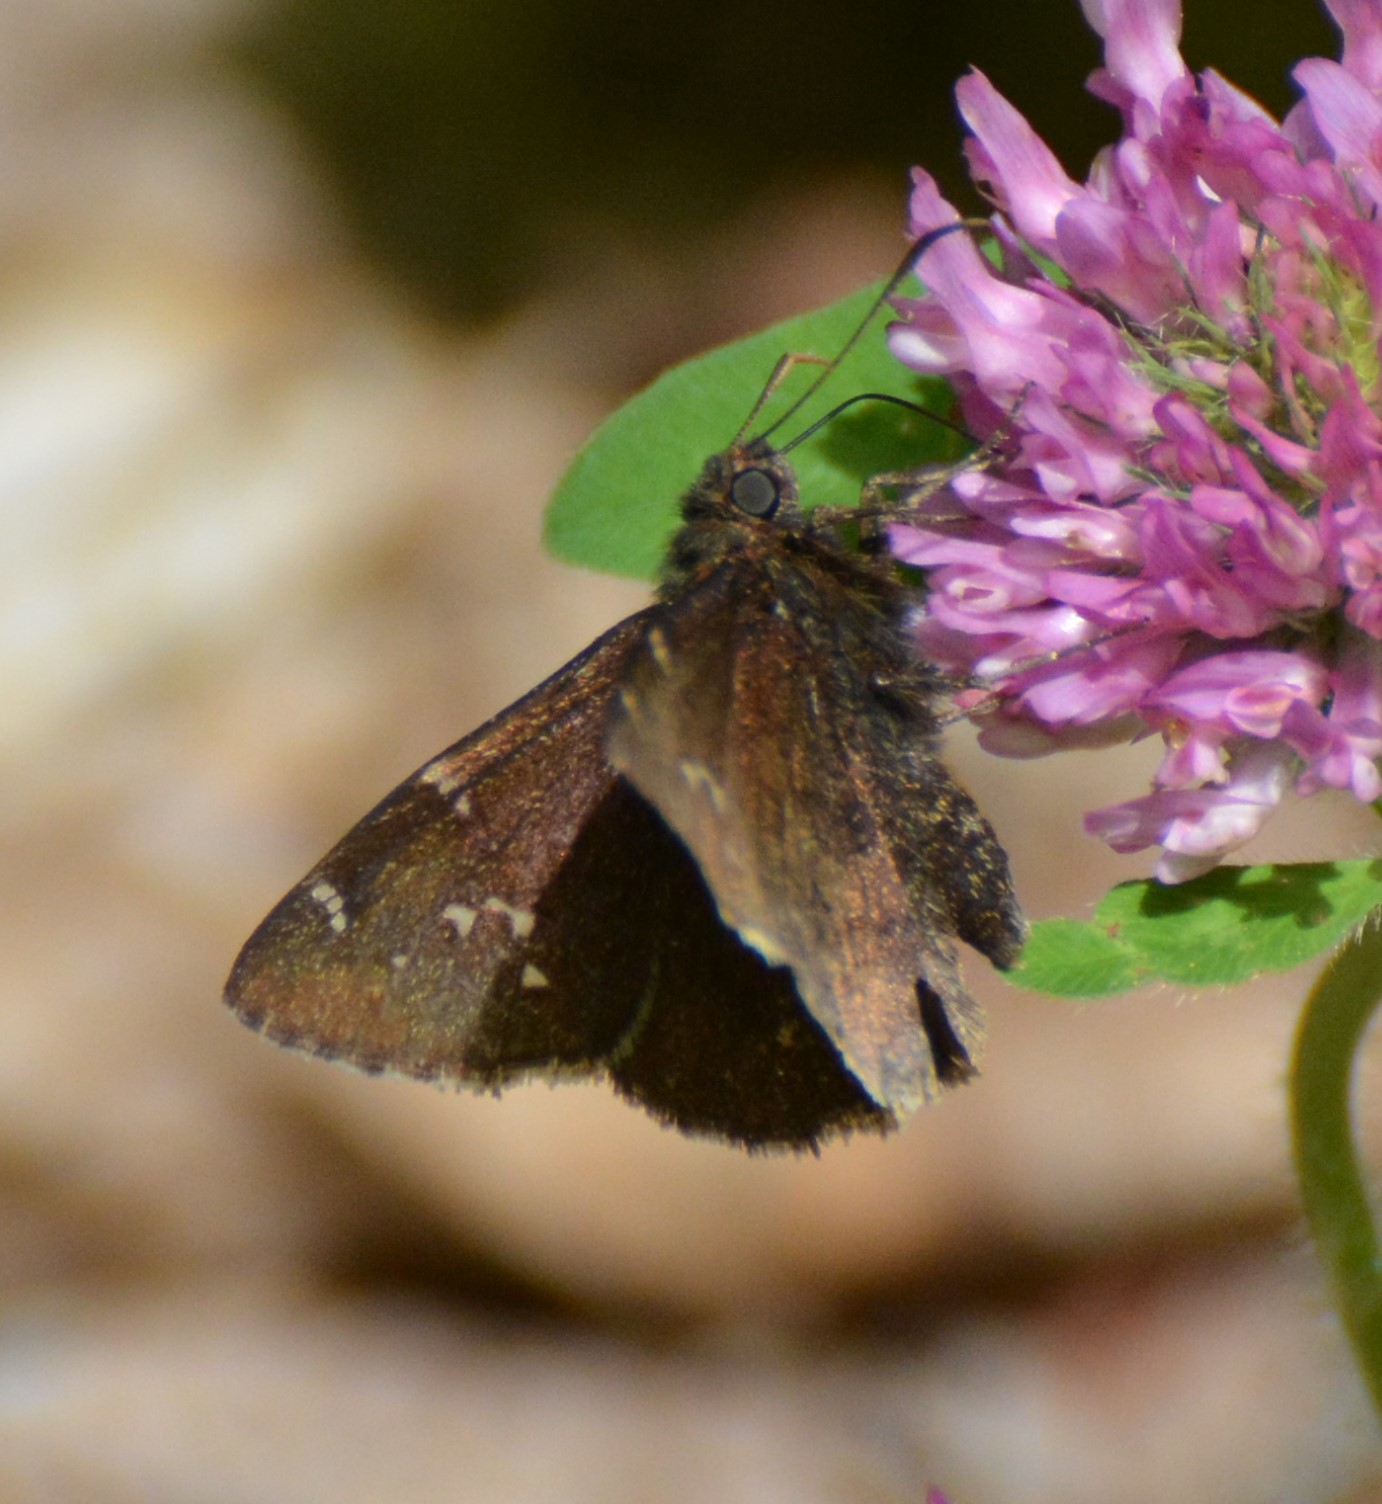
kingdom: Animalia
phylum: Arthropoda
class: Insecta
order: Lepidoptera
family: Hesperiidae
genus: Thorybes
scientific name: Thorybes pylades
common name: Northern cloudywing
